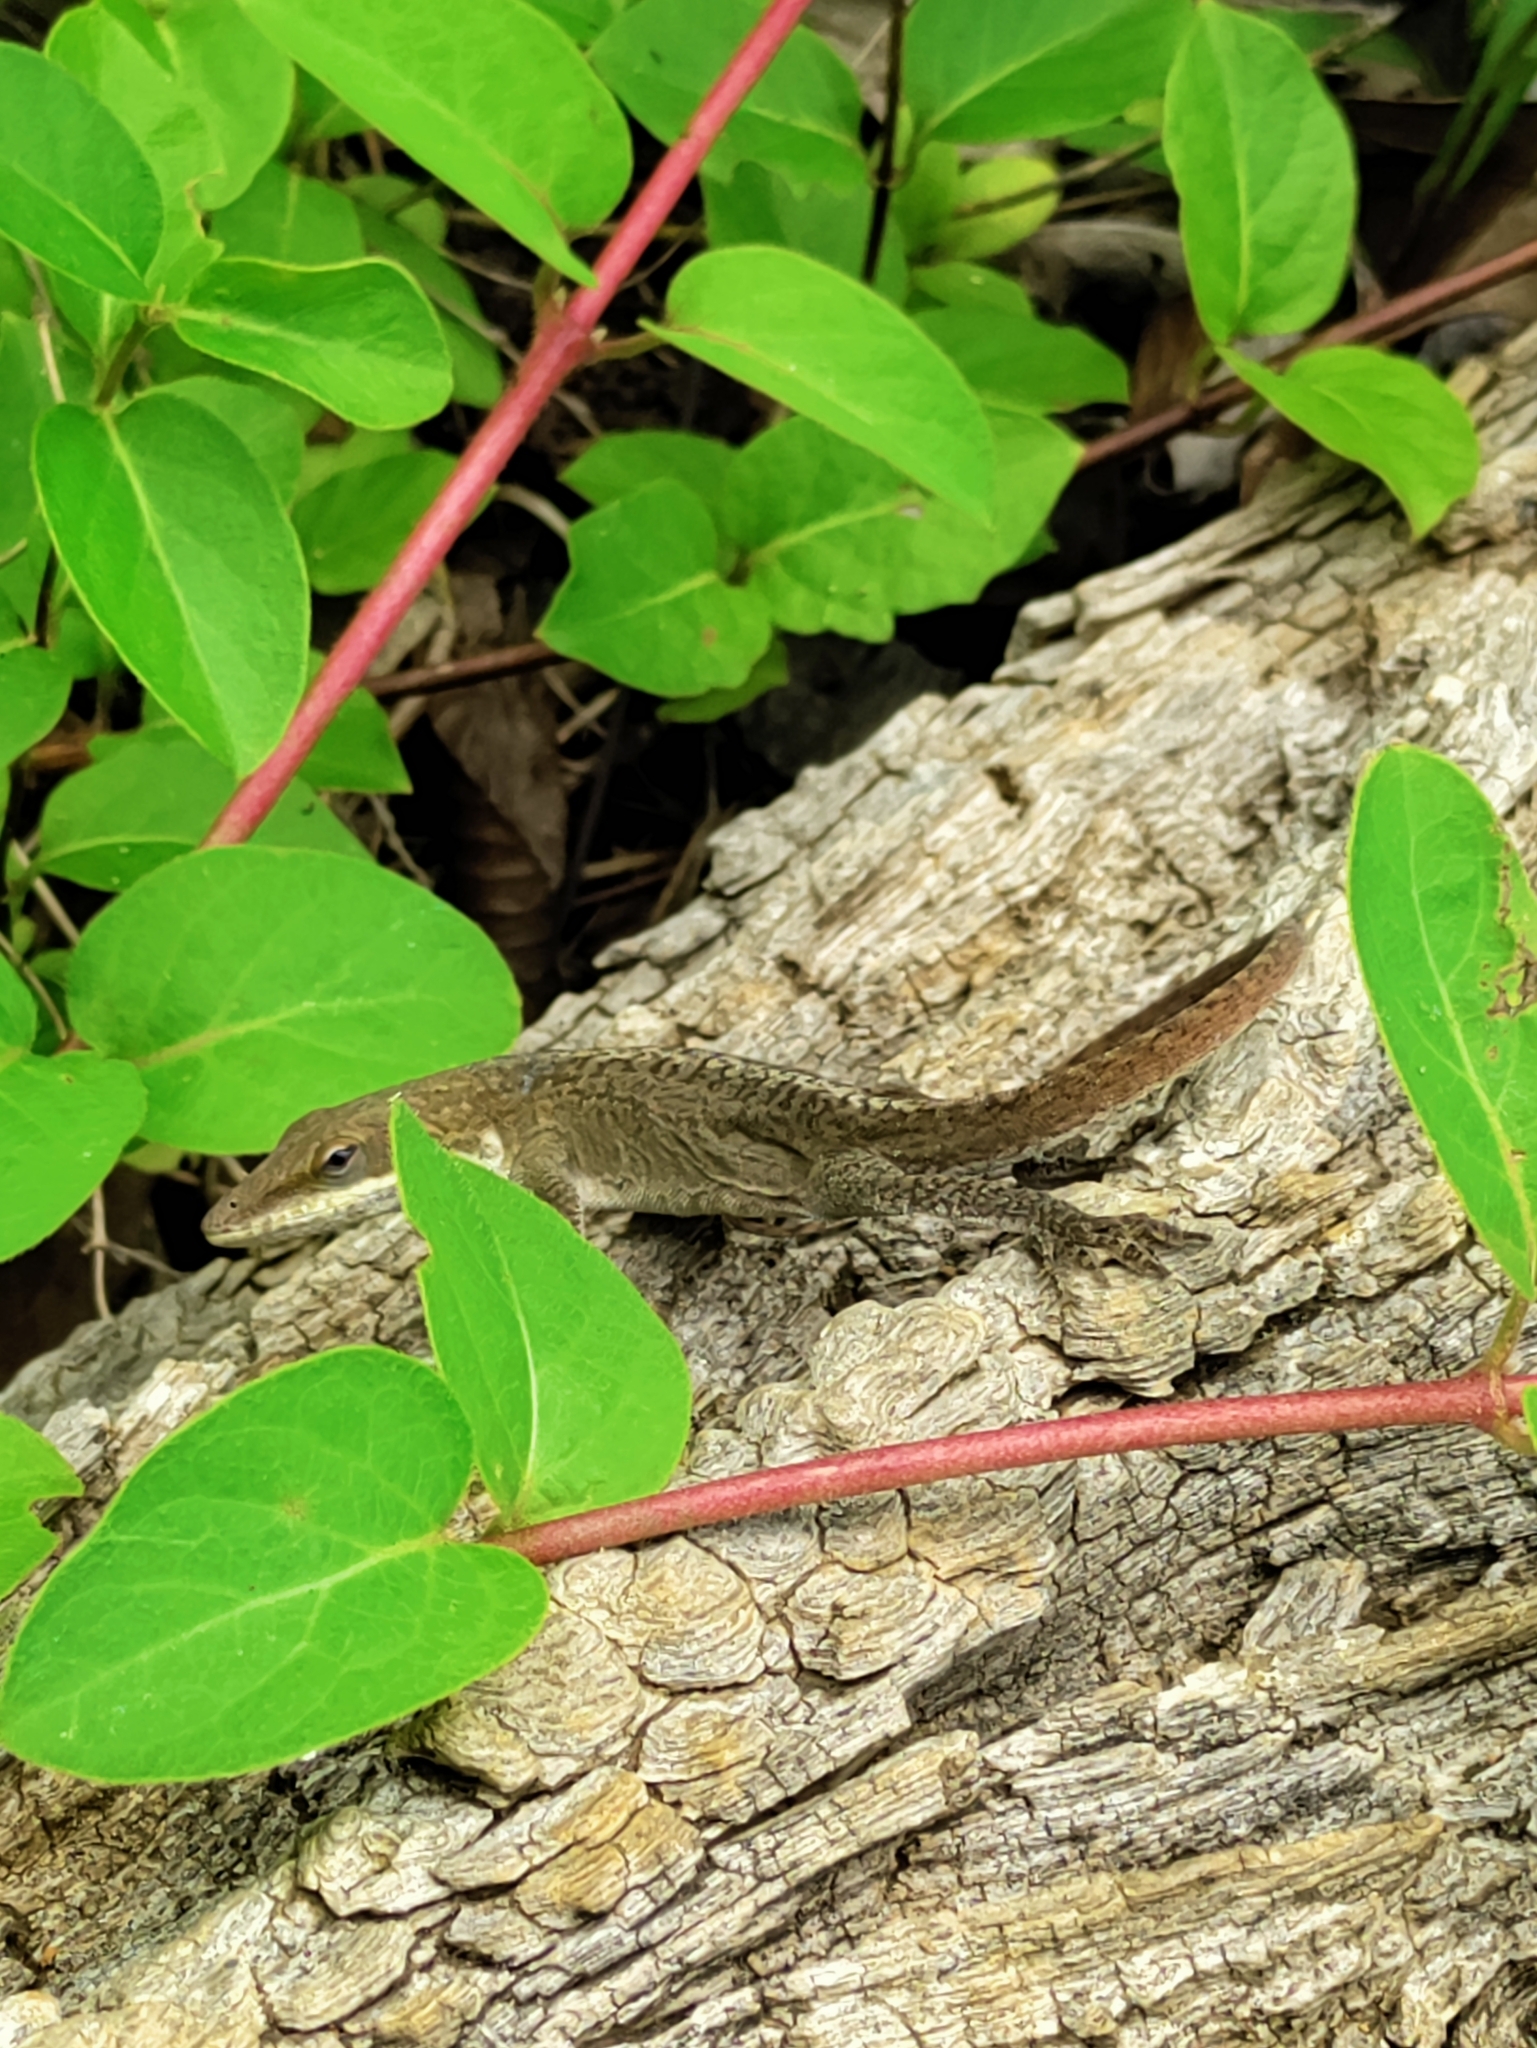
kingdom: Animalia
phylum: Chordata
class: Squamata
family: Dactyloidae
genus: Anolis
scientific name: Anolis carolinensis
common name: Green anole
